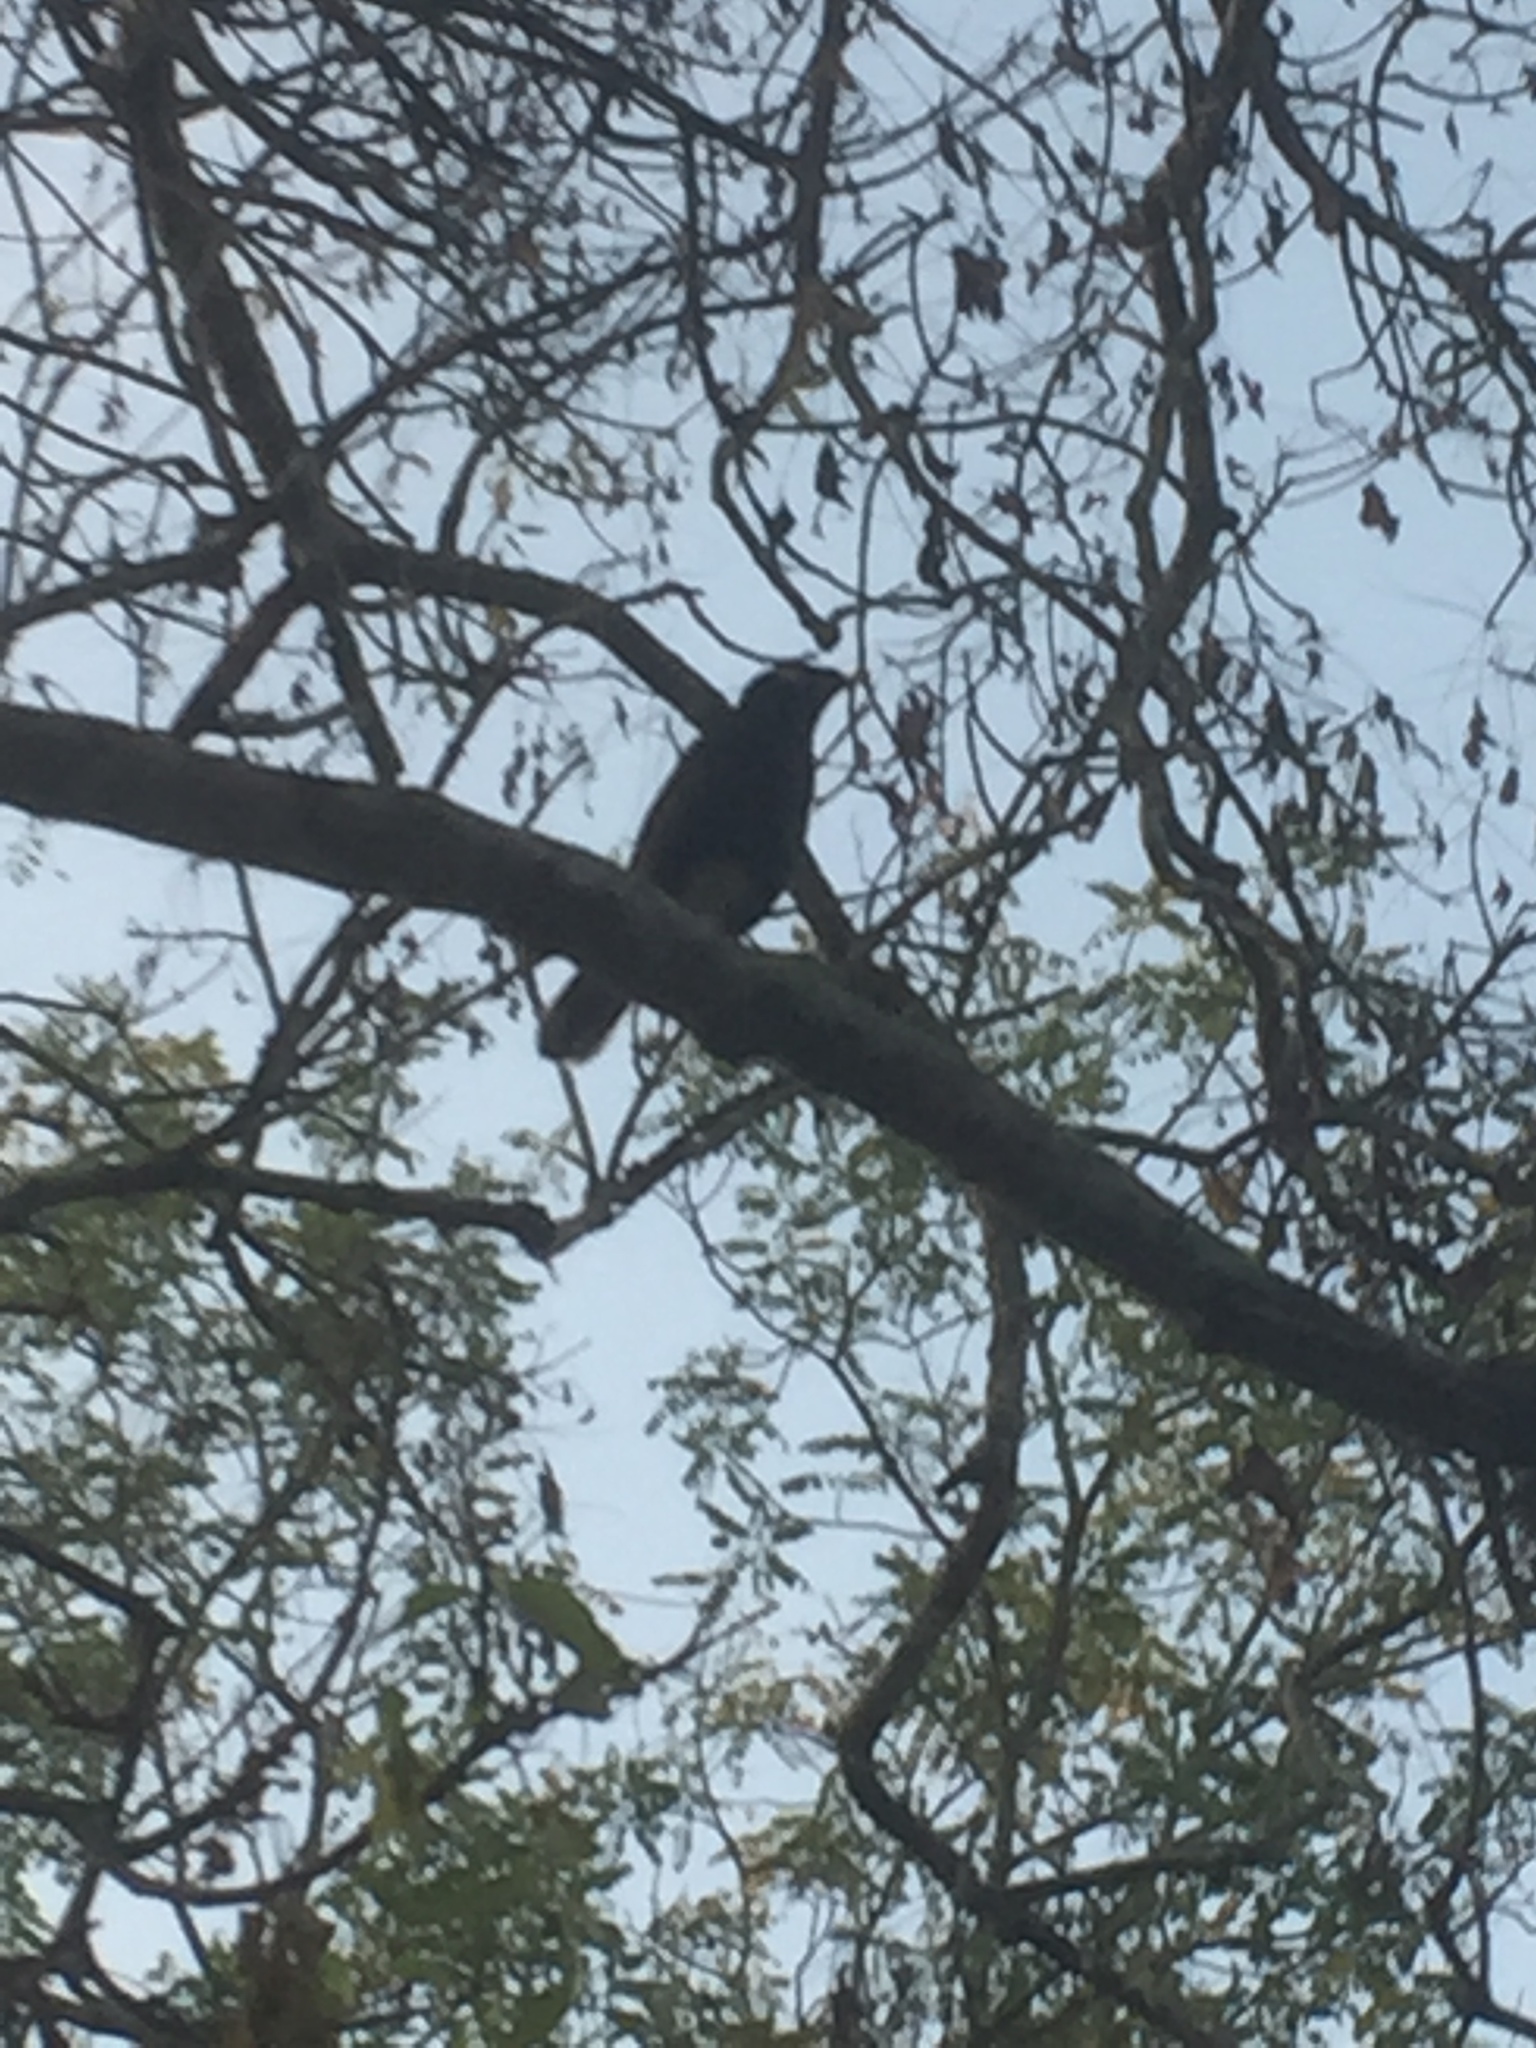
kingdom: Animalia
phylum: Chordata
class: Aves
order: Passeriformes
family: Sturnidae
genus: Acridotheres
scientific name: Acridotheres tristis
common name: Common myna
